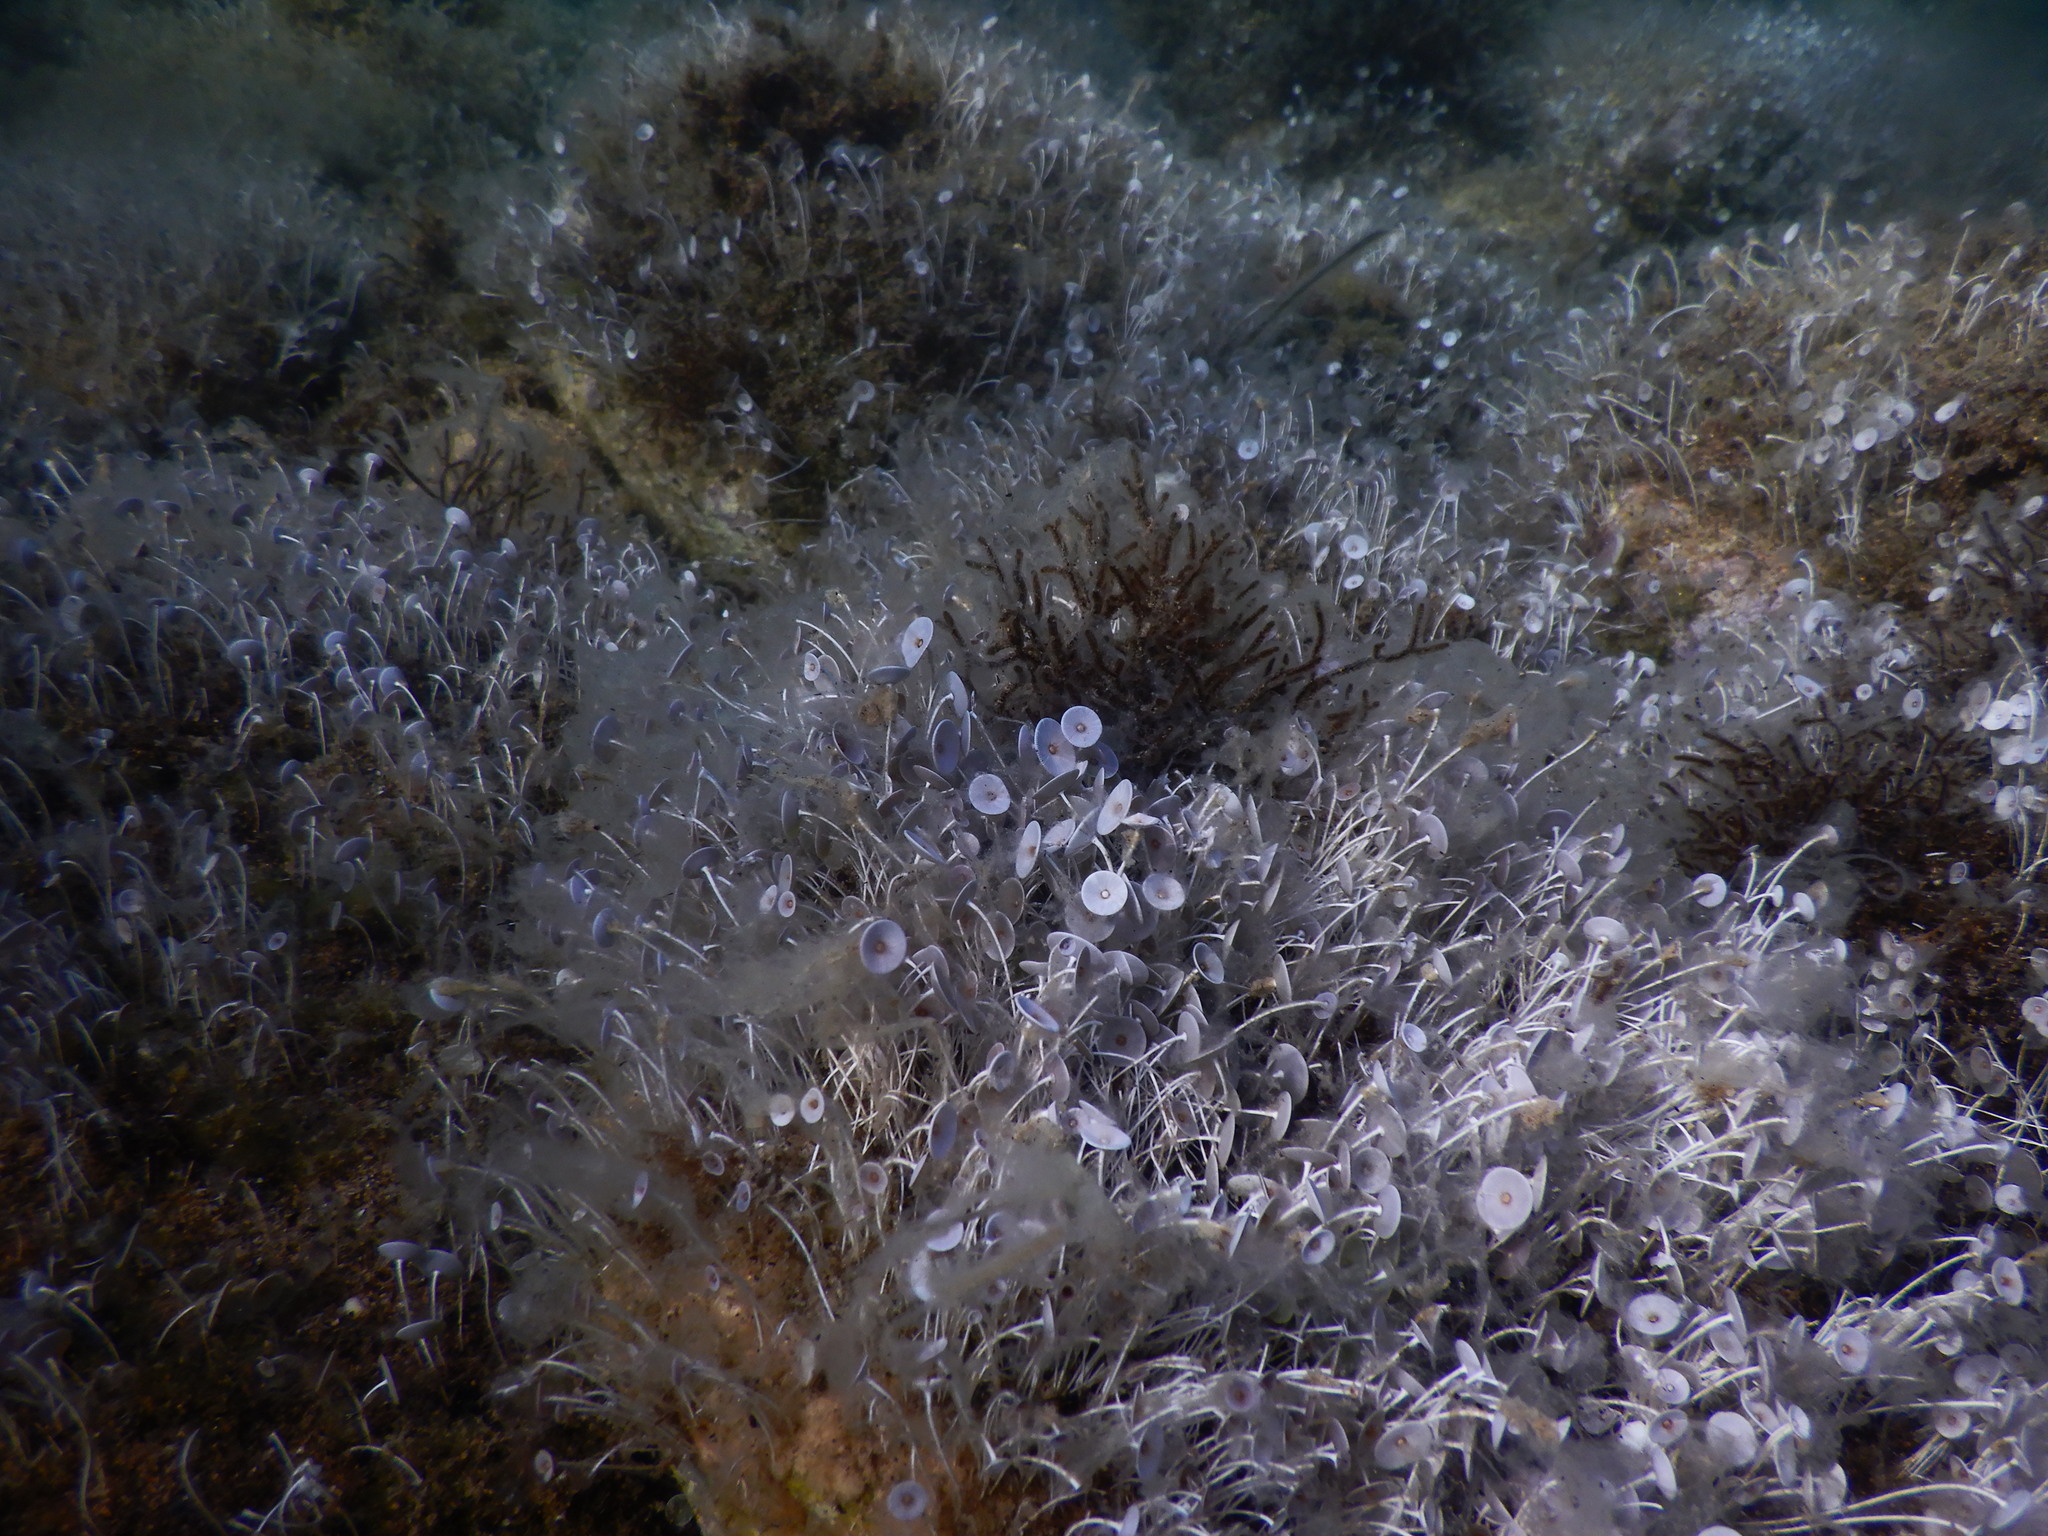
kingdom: Plantae
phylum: Chlorophyta
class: Ulvophyceae
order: Dasycladales
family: Polyphysaceae
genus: Acetabularia
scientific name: Acetabularia acetabulum
